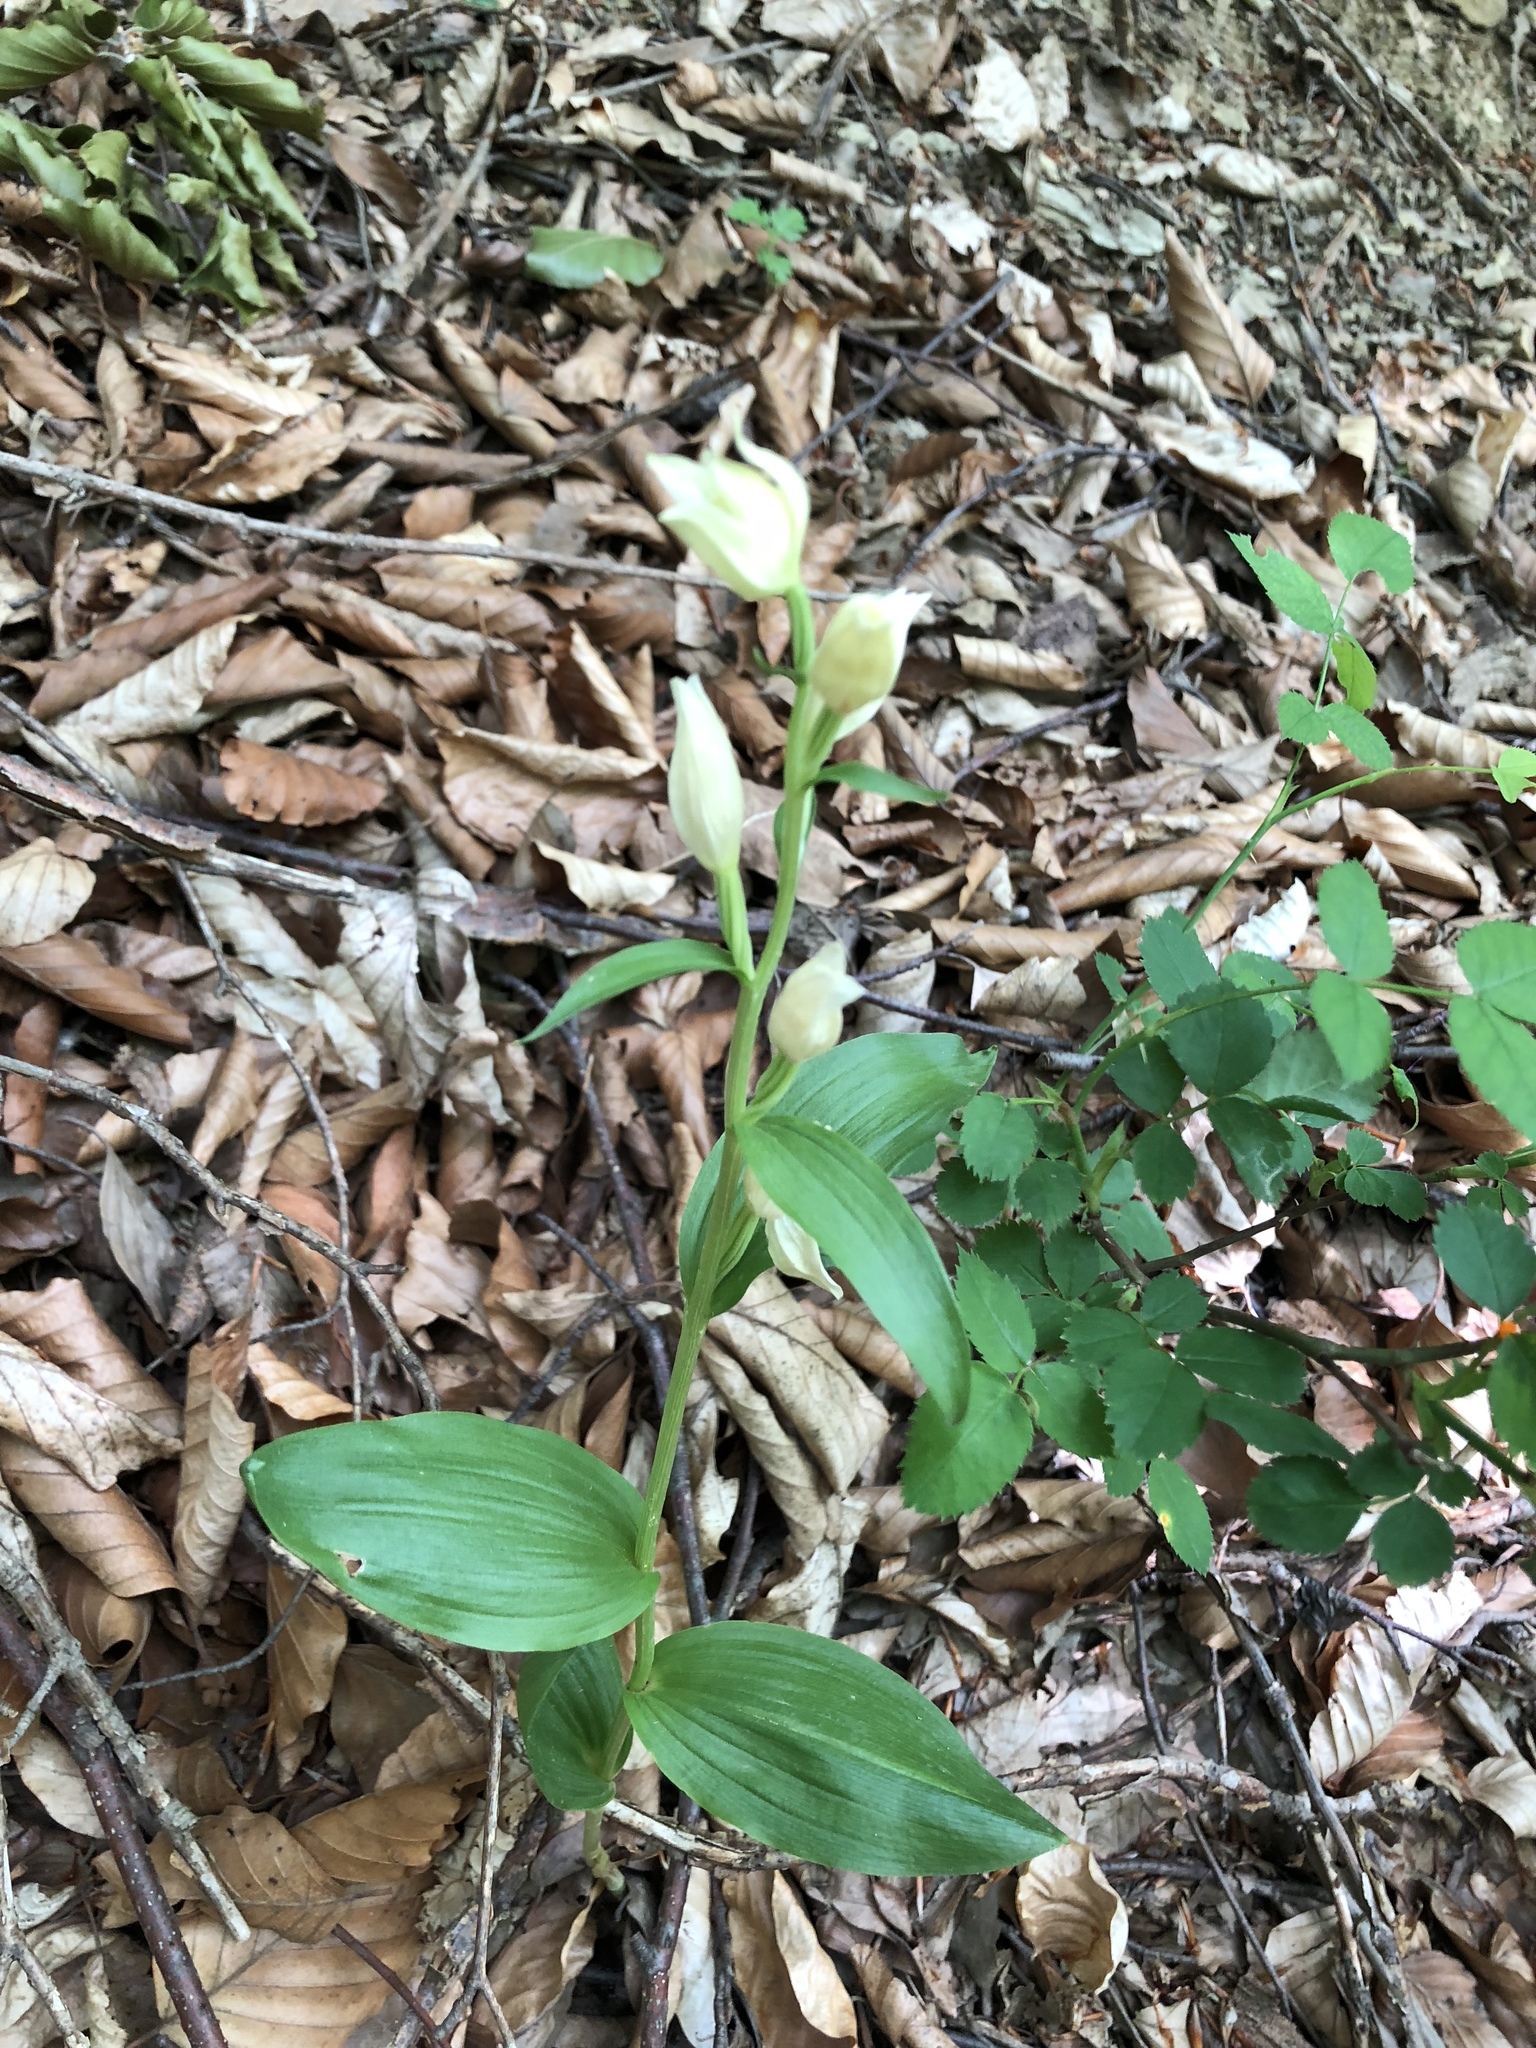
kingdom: Plantae
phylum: Tracheophyta
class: Liliopsida
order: Asparagales
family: Orchidaceae
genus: Cephalanthera
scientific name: Cephalanthera damasonium
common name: White helleborine
